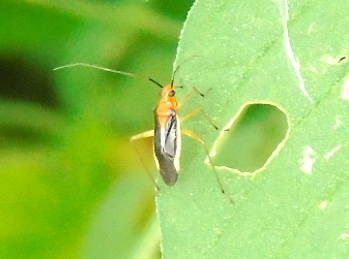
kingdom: Animalia
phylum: Arthropoda
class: Insecta
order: Hemiptera
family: Miridae
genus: Ganocapsus
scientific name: Ganocapsus filiformis
